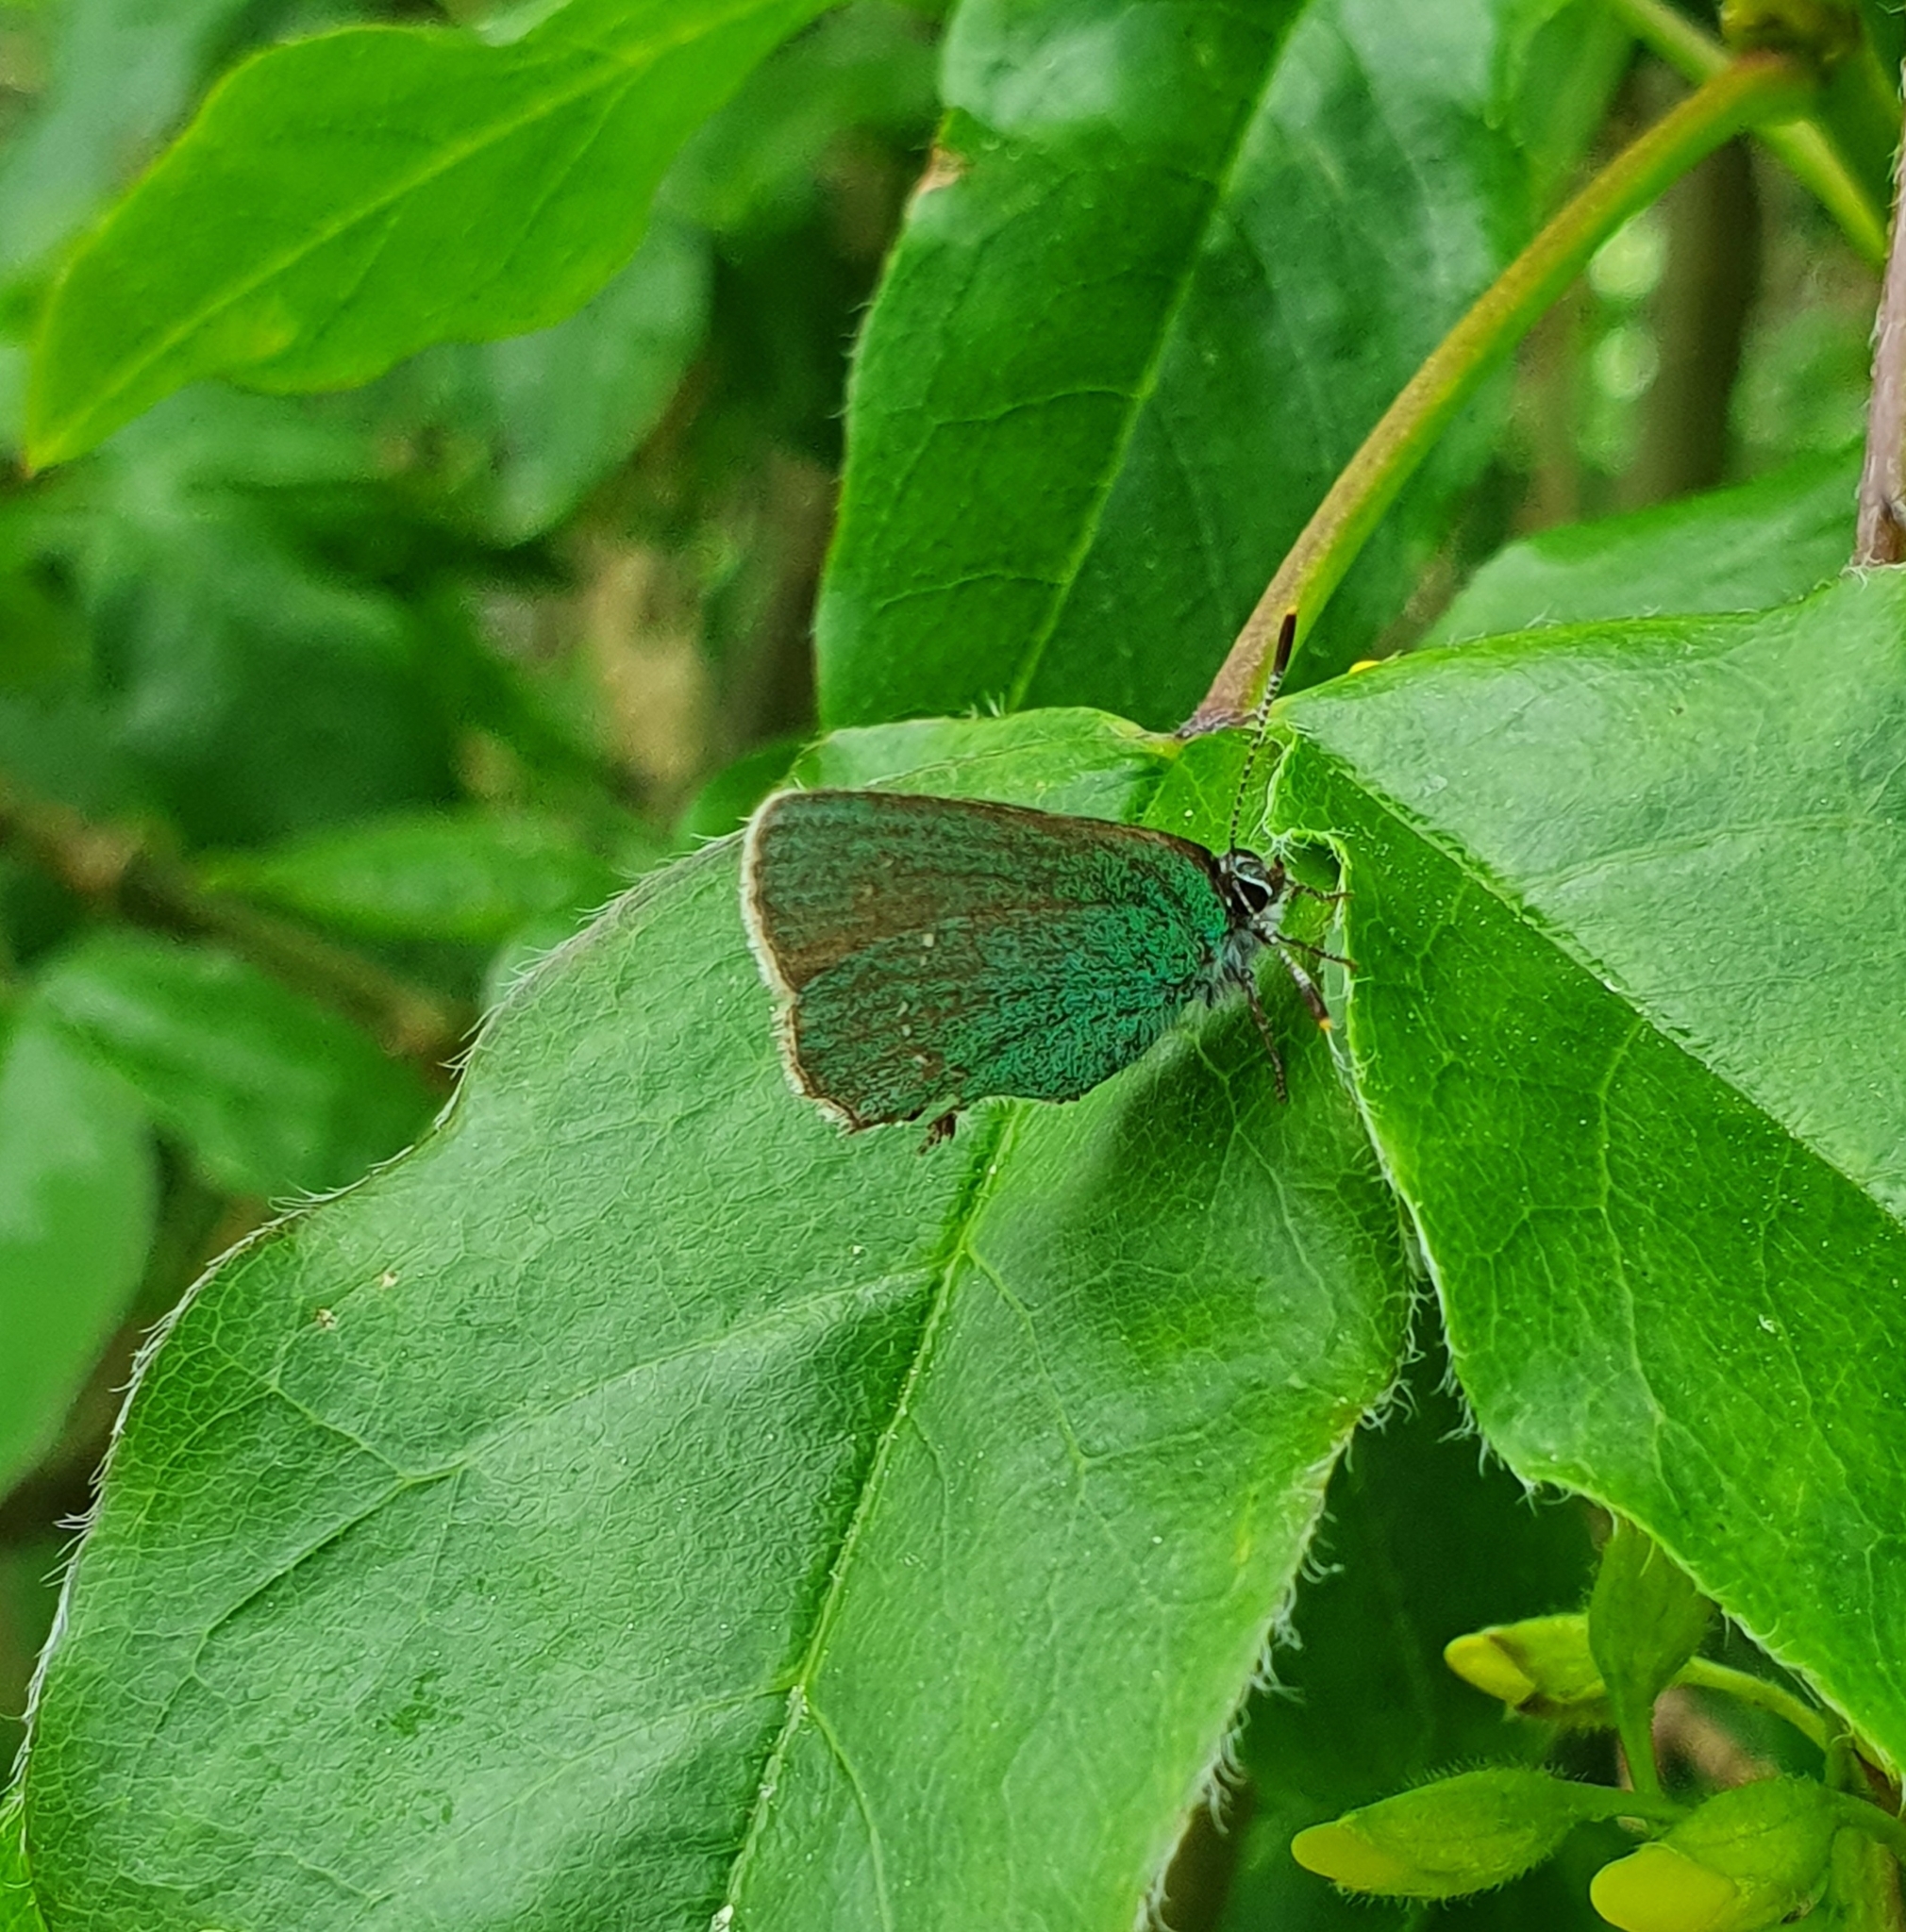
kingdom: Animalia
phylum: Arthropoda
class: Insecta
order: Lepidoptera
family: Lycaenidae
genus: Callophrys
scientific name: Callophrys rubi
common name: Green hairstreak
